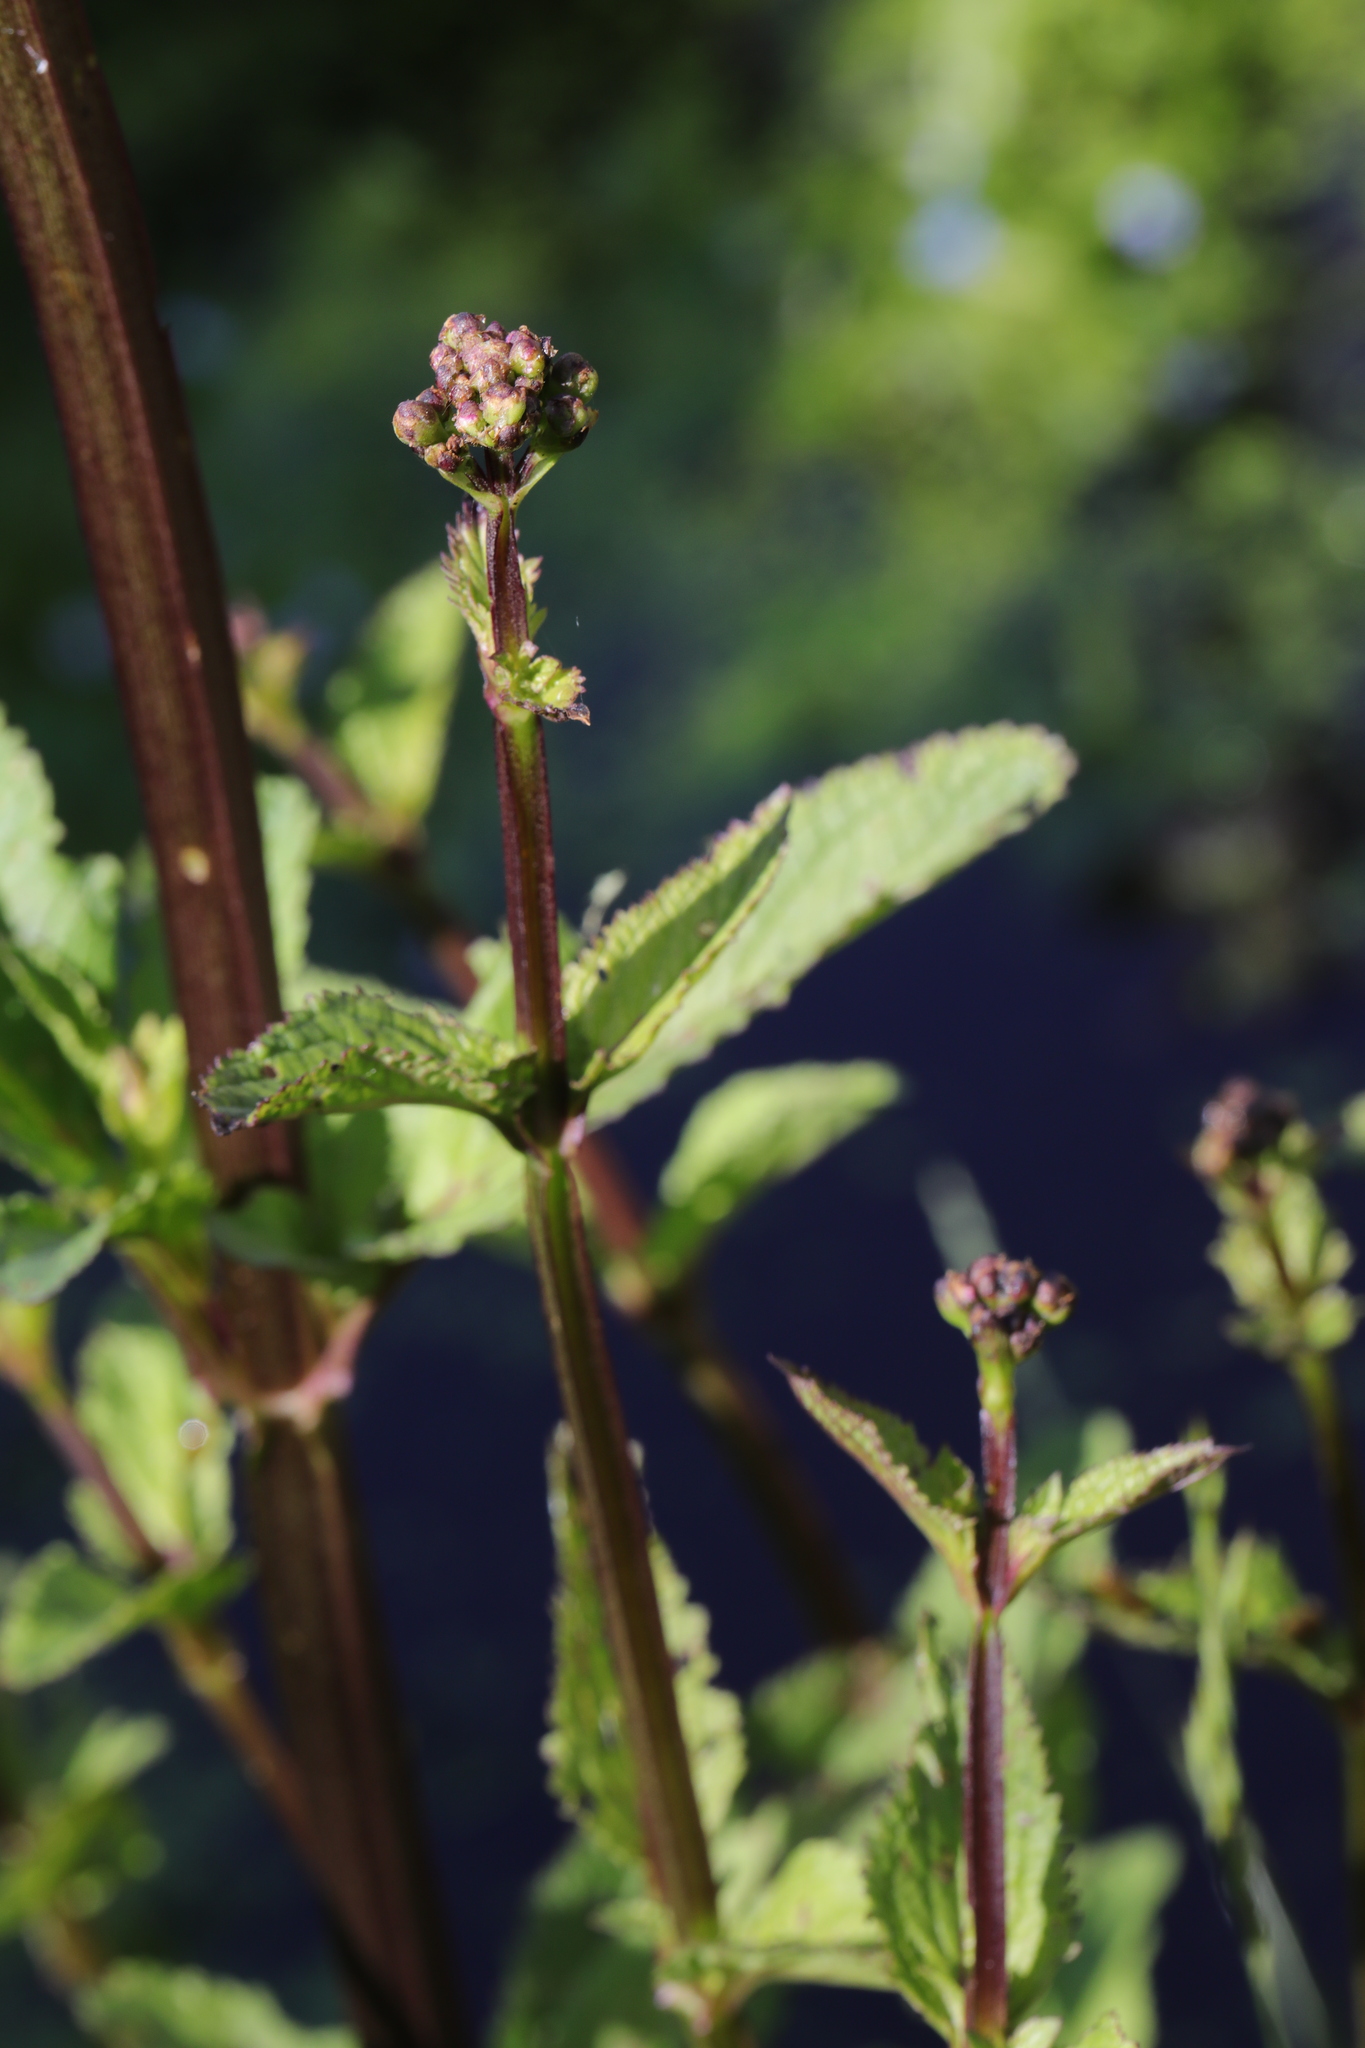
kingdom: Plantae
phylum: Tracheophyta
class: Magnoliopsida
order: Lamiales
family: Scrophulariaceae
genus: Scrophularia
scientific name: Scrophularia auriculata
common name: Water betony
